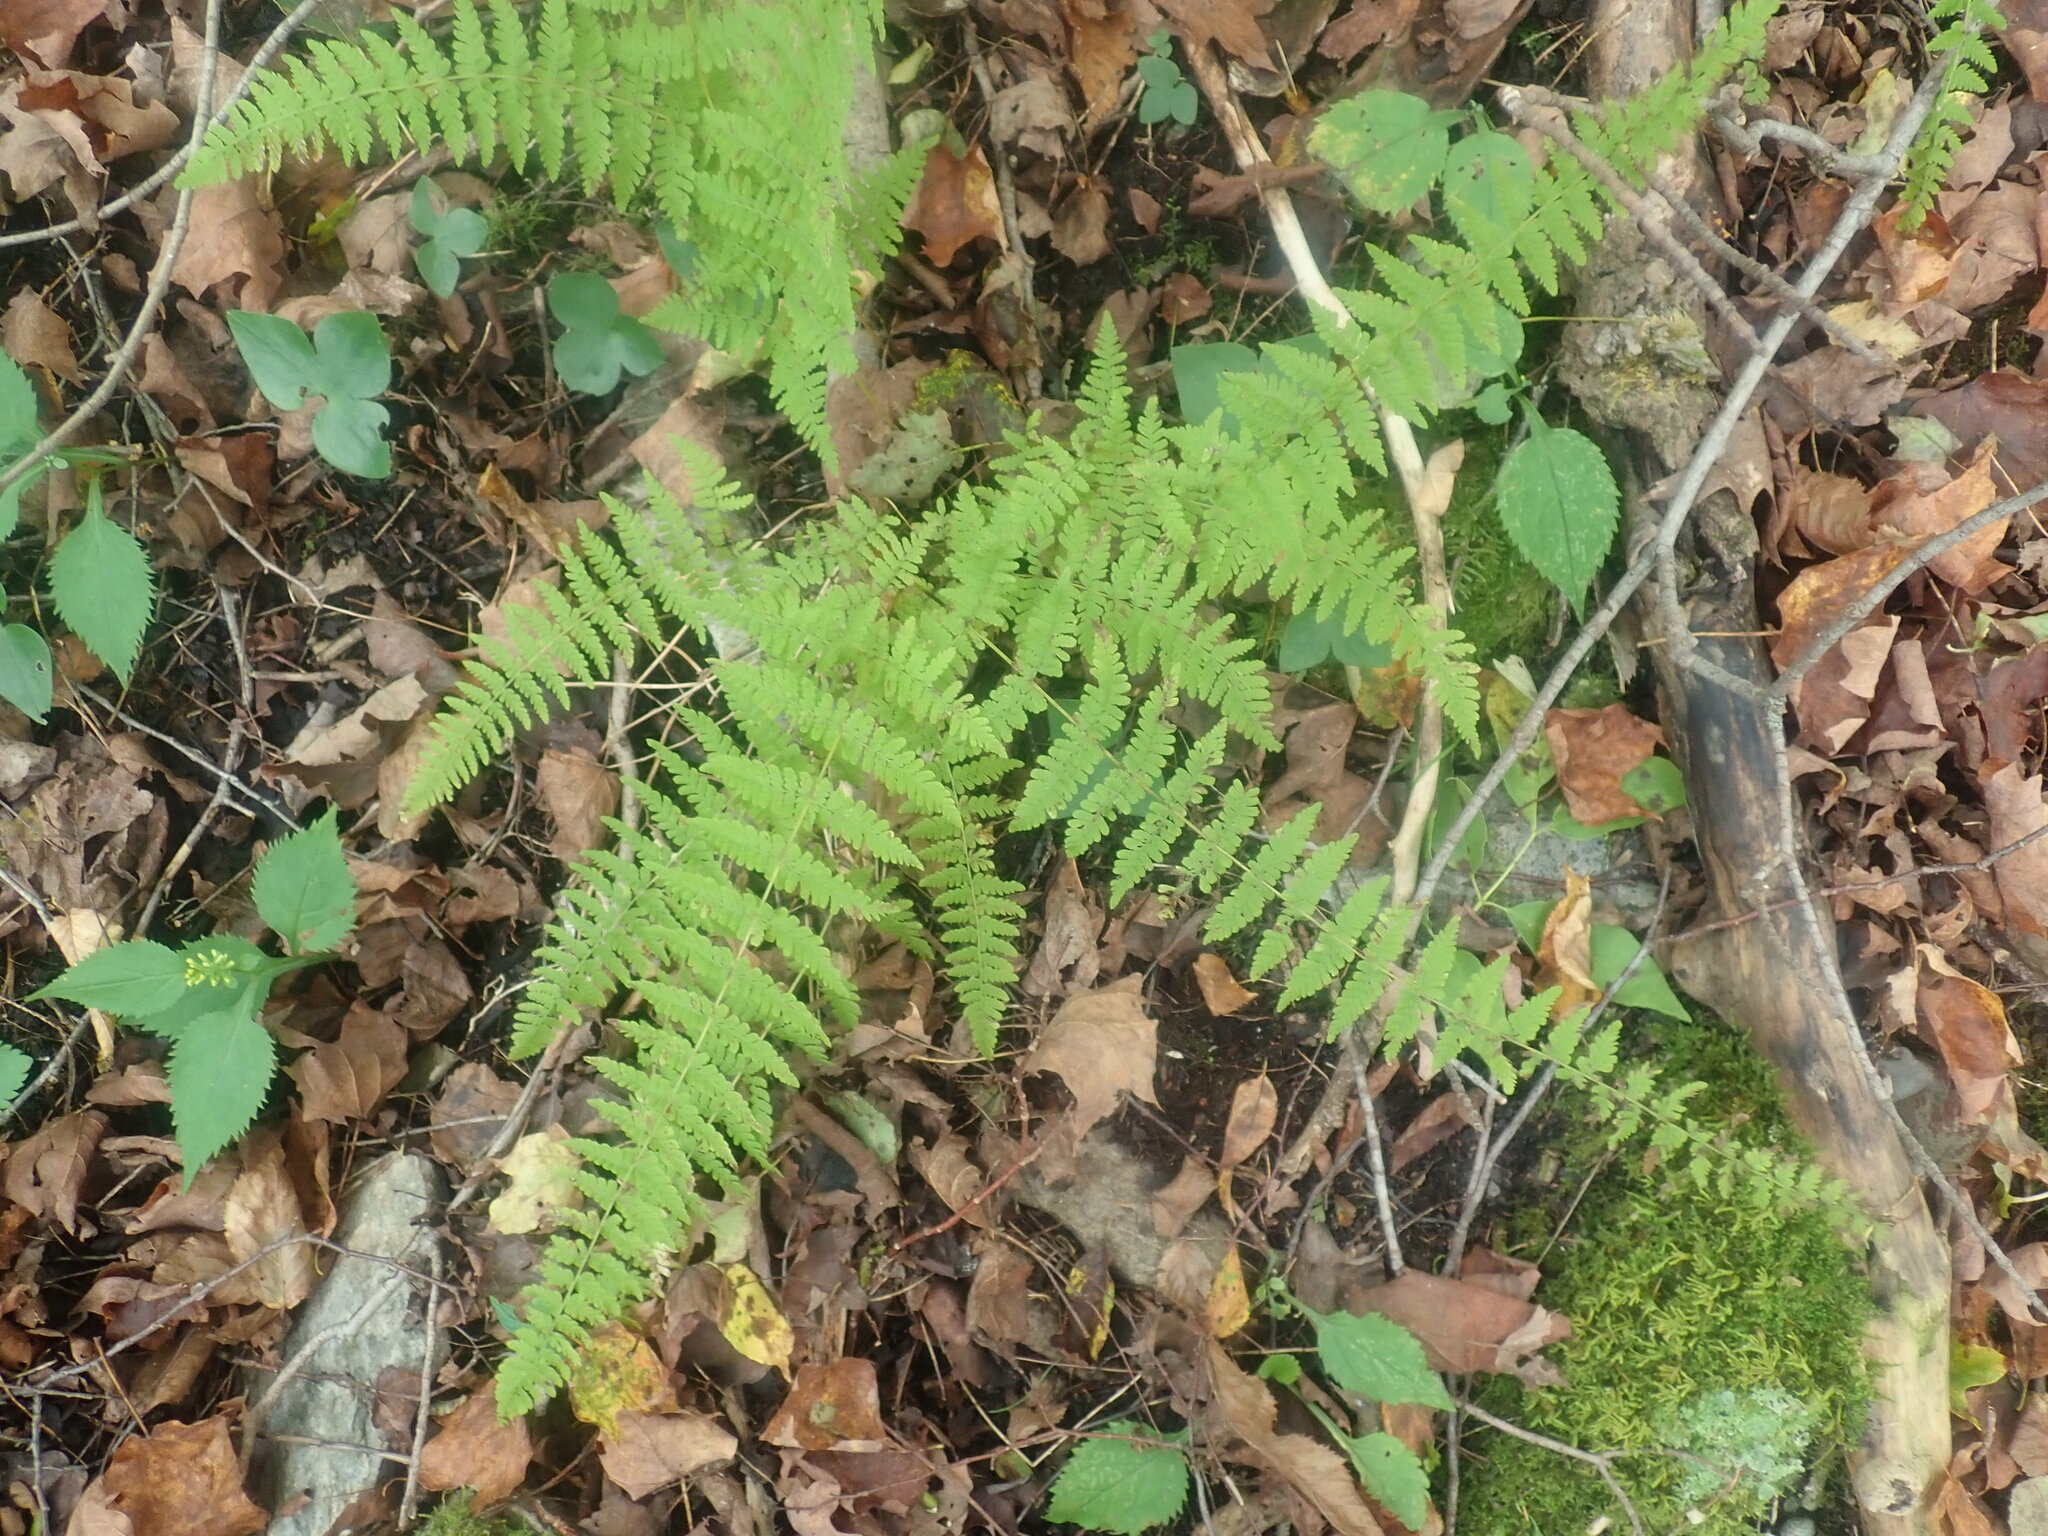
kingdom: Plantae
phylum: Tracheophyta
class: Polypodiopsida
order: Polypodiales
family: Cystopteridaceae
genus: Cystopteris
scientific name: Cystopteris bulbifera
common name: Bulblet bladder fern
